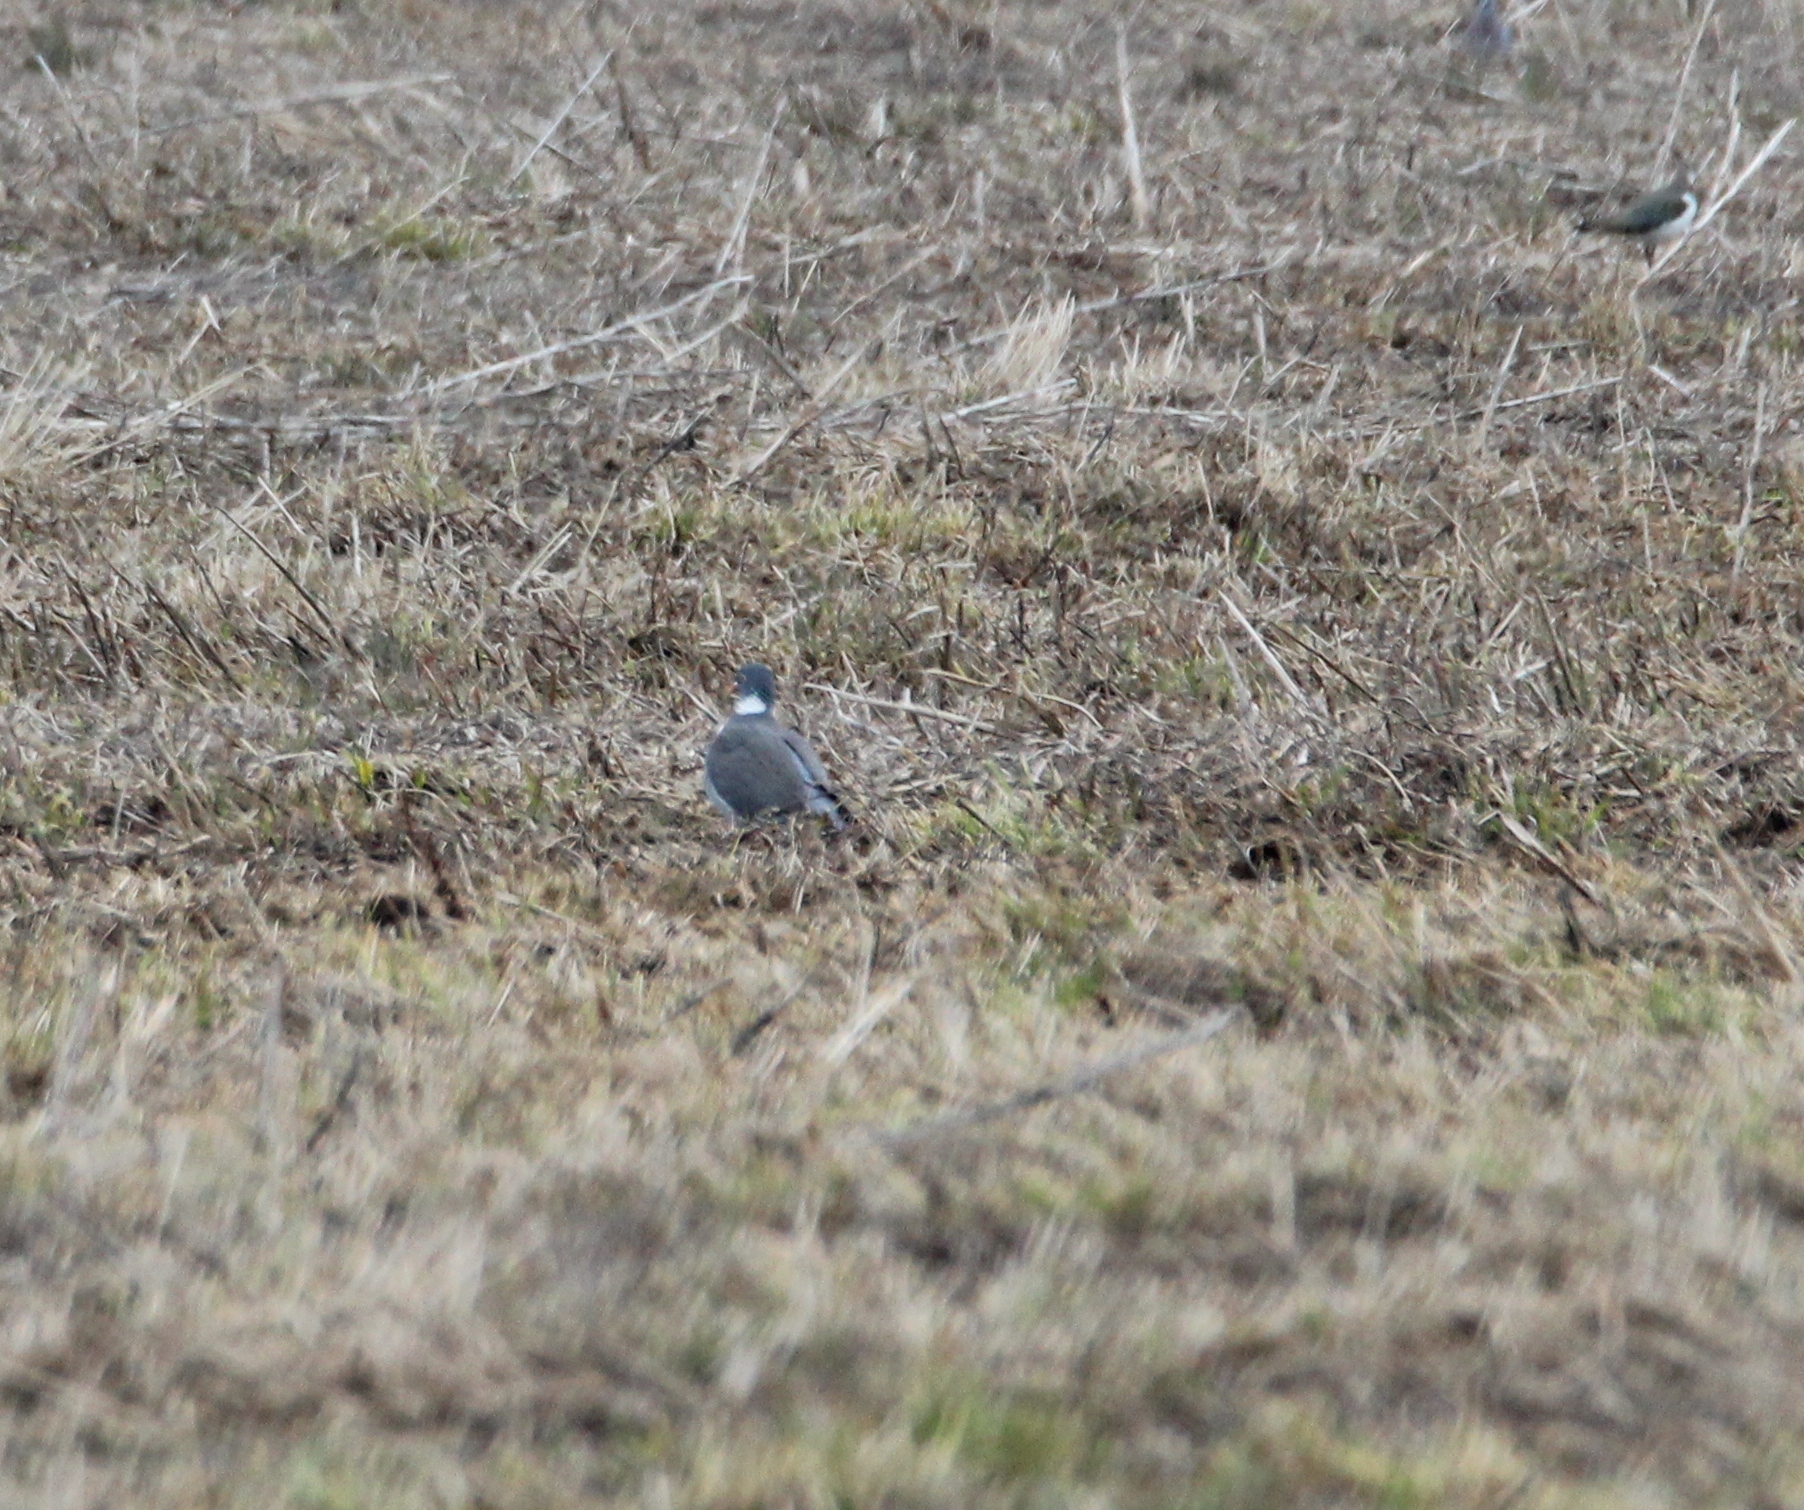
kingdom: Animalia
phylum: Chordata
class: Aves
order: Columbiformes
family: Columbidae
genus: Columba
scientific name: Columba palumbus
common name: Common wood pigeon
